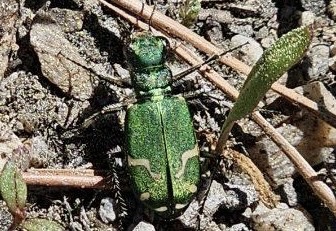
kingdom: Animalia
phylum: Arthropoda
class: Insecta
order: Coleoptera
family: Carabidae
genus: Cicindela
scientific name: Cicindela tranquebarica
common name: Oblique-lined tiger beetle
